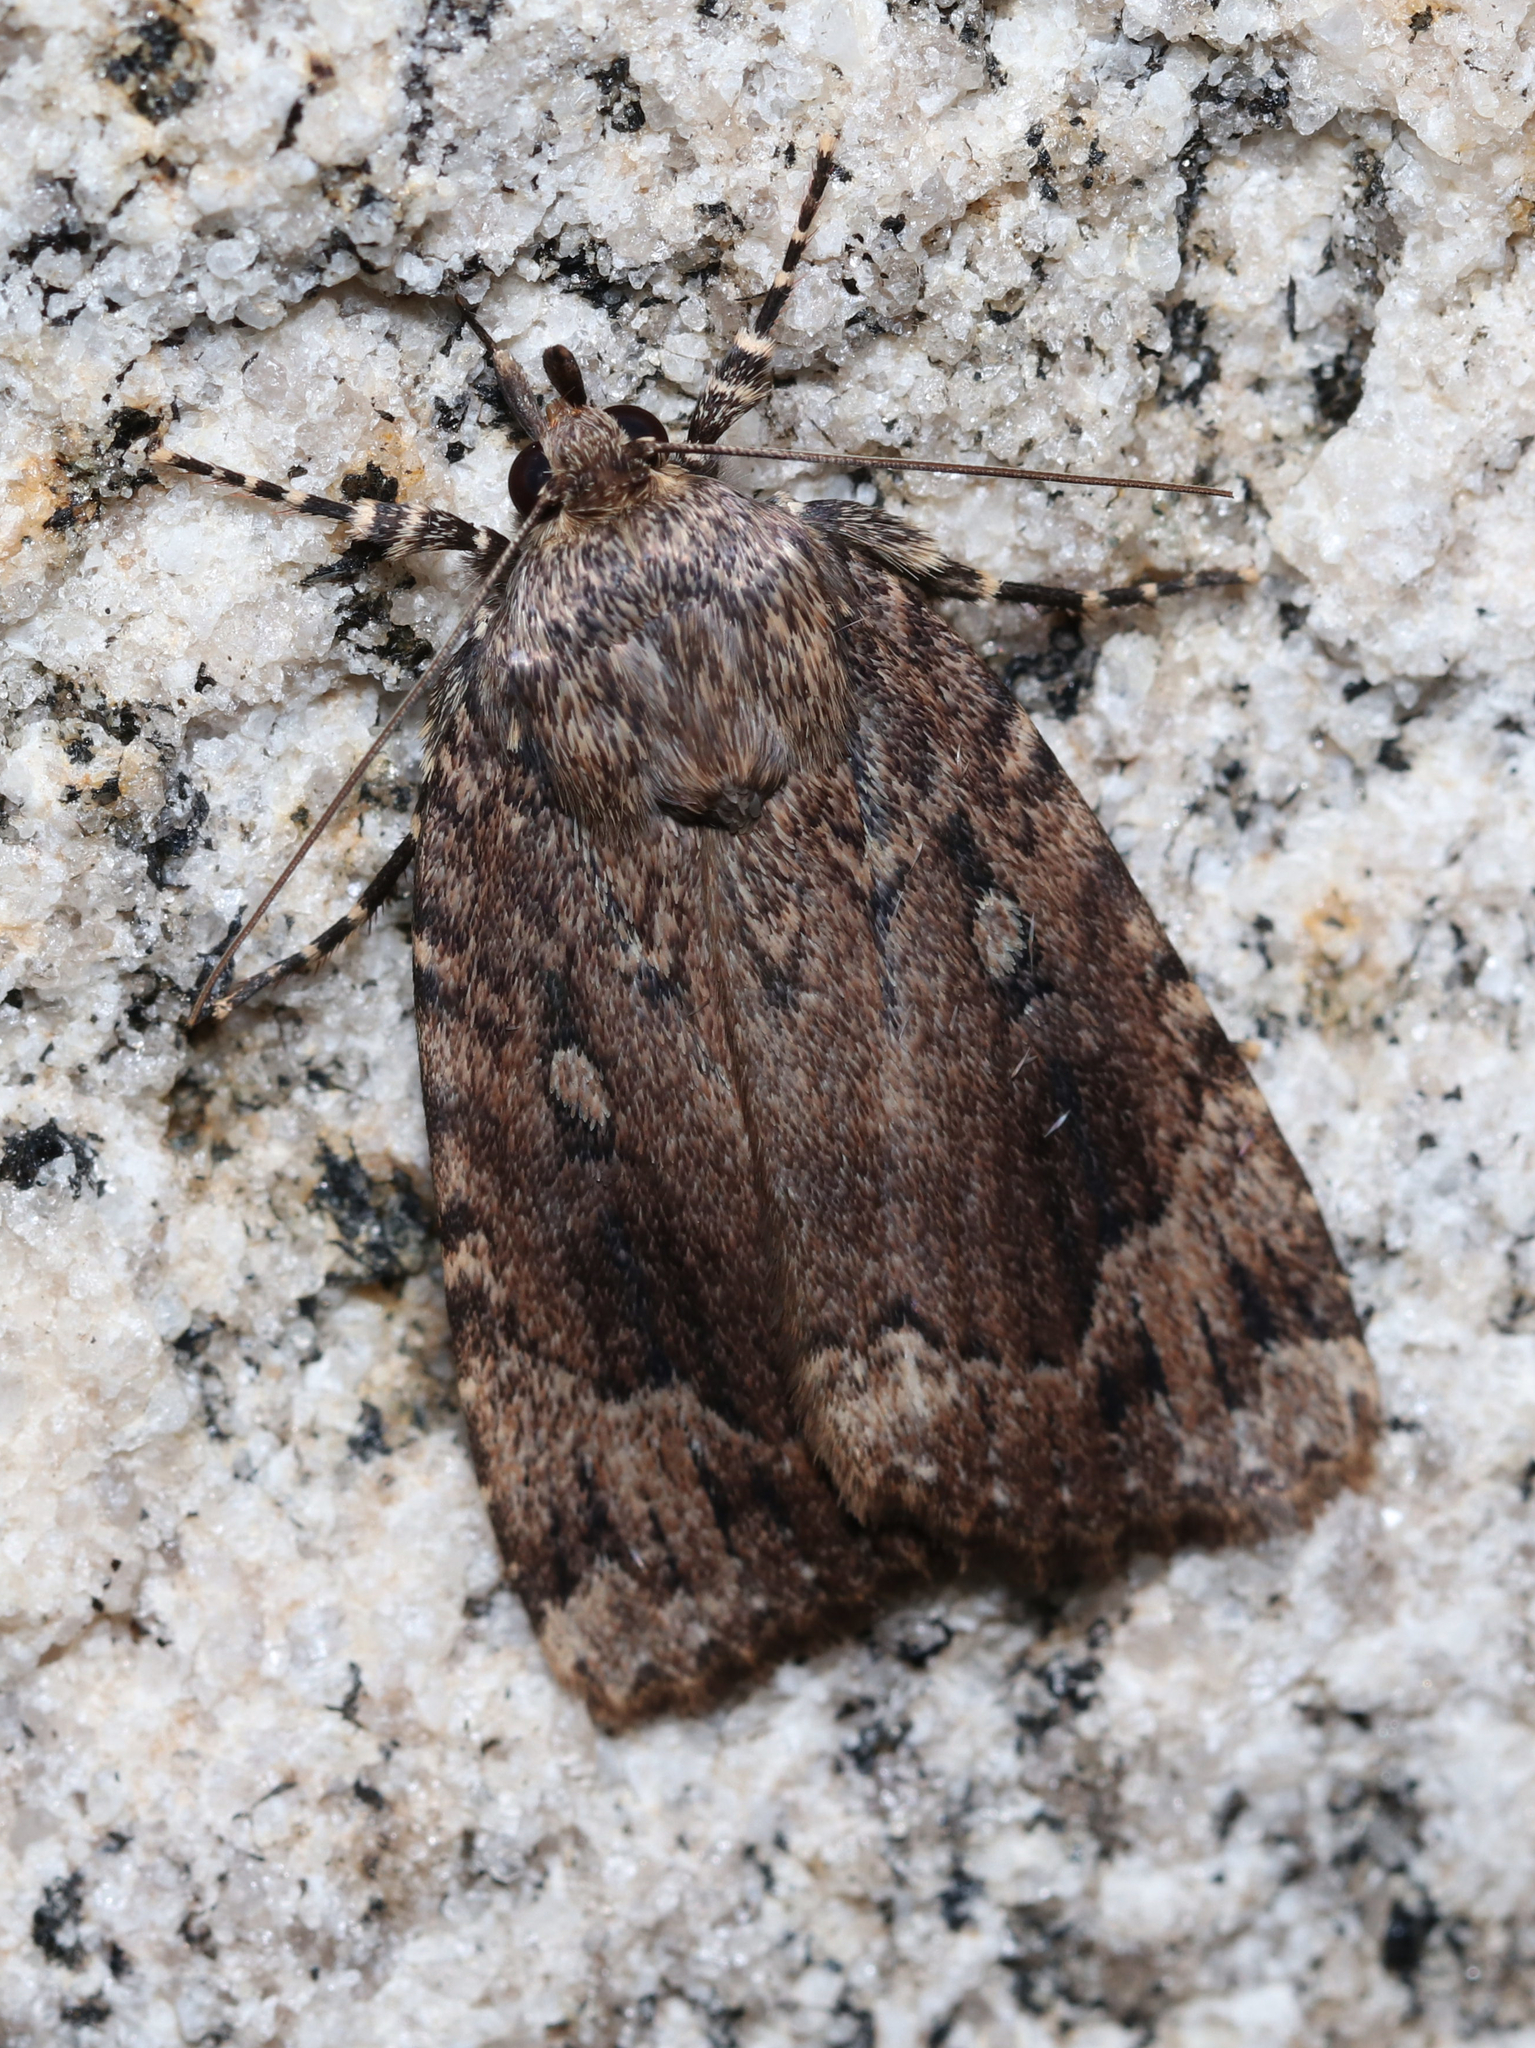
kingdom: Animalia
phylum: Arthropoda
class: Insecta
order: Lepidoptera
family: Noctuidae
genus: Amphipyra
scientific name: Amphipyra pyramidoides
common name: American copper underwing
